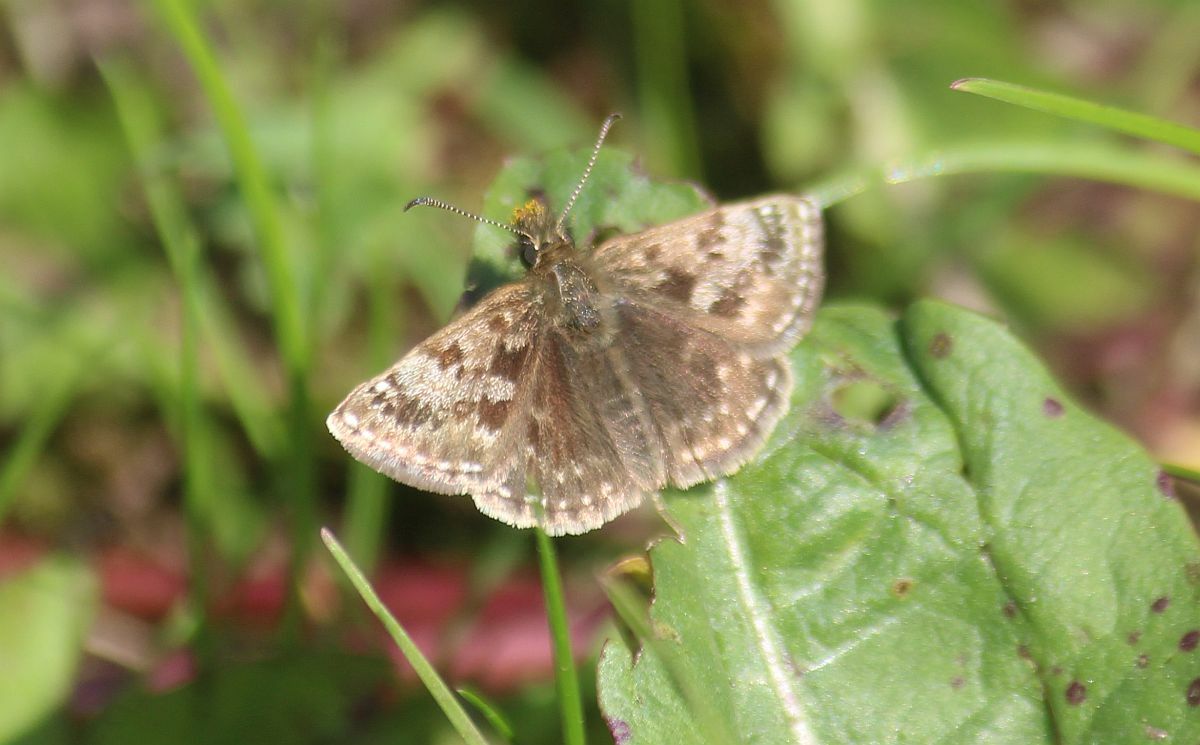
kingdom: Animalia
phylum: Arthropoda
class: Insecta
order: Lepidoptera
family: Hesperiidae
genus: Erynnis
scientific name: Erynnis tages
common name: Dingy skipper
